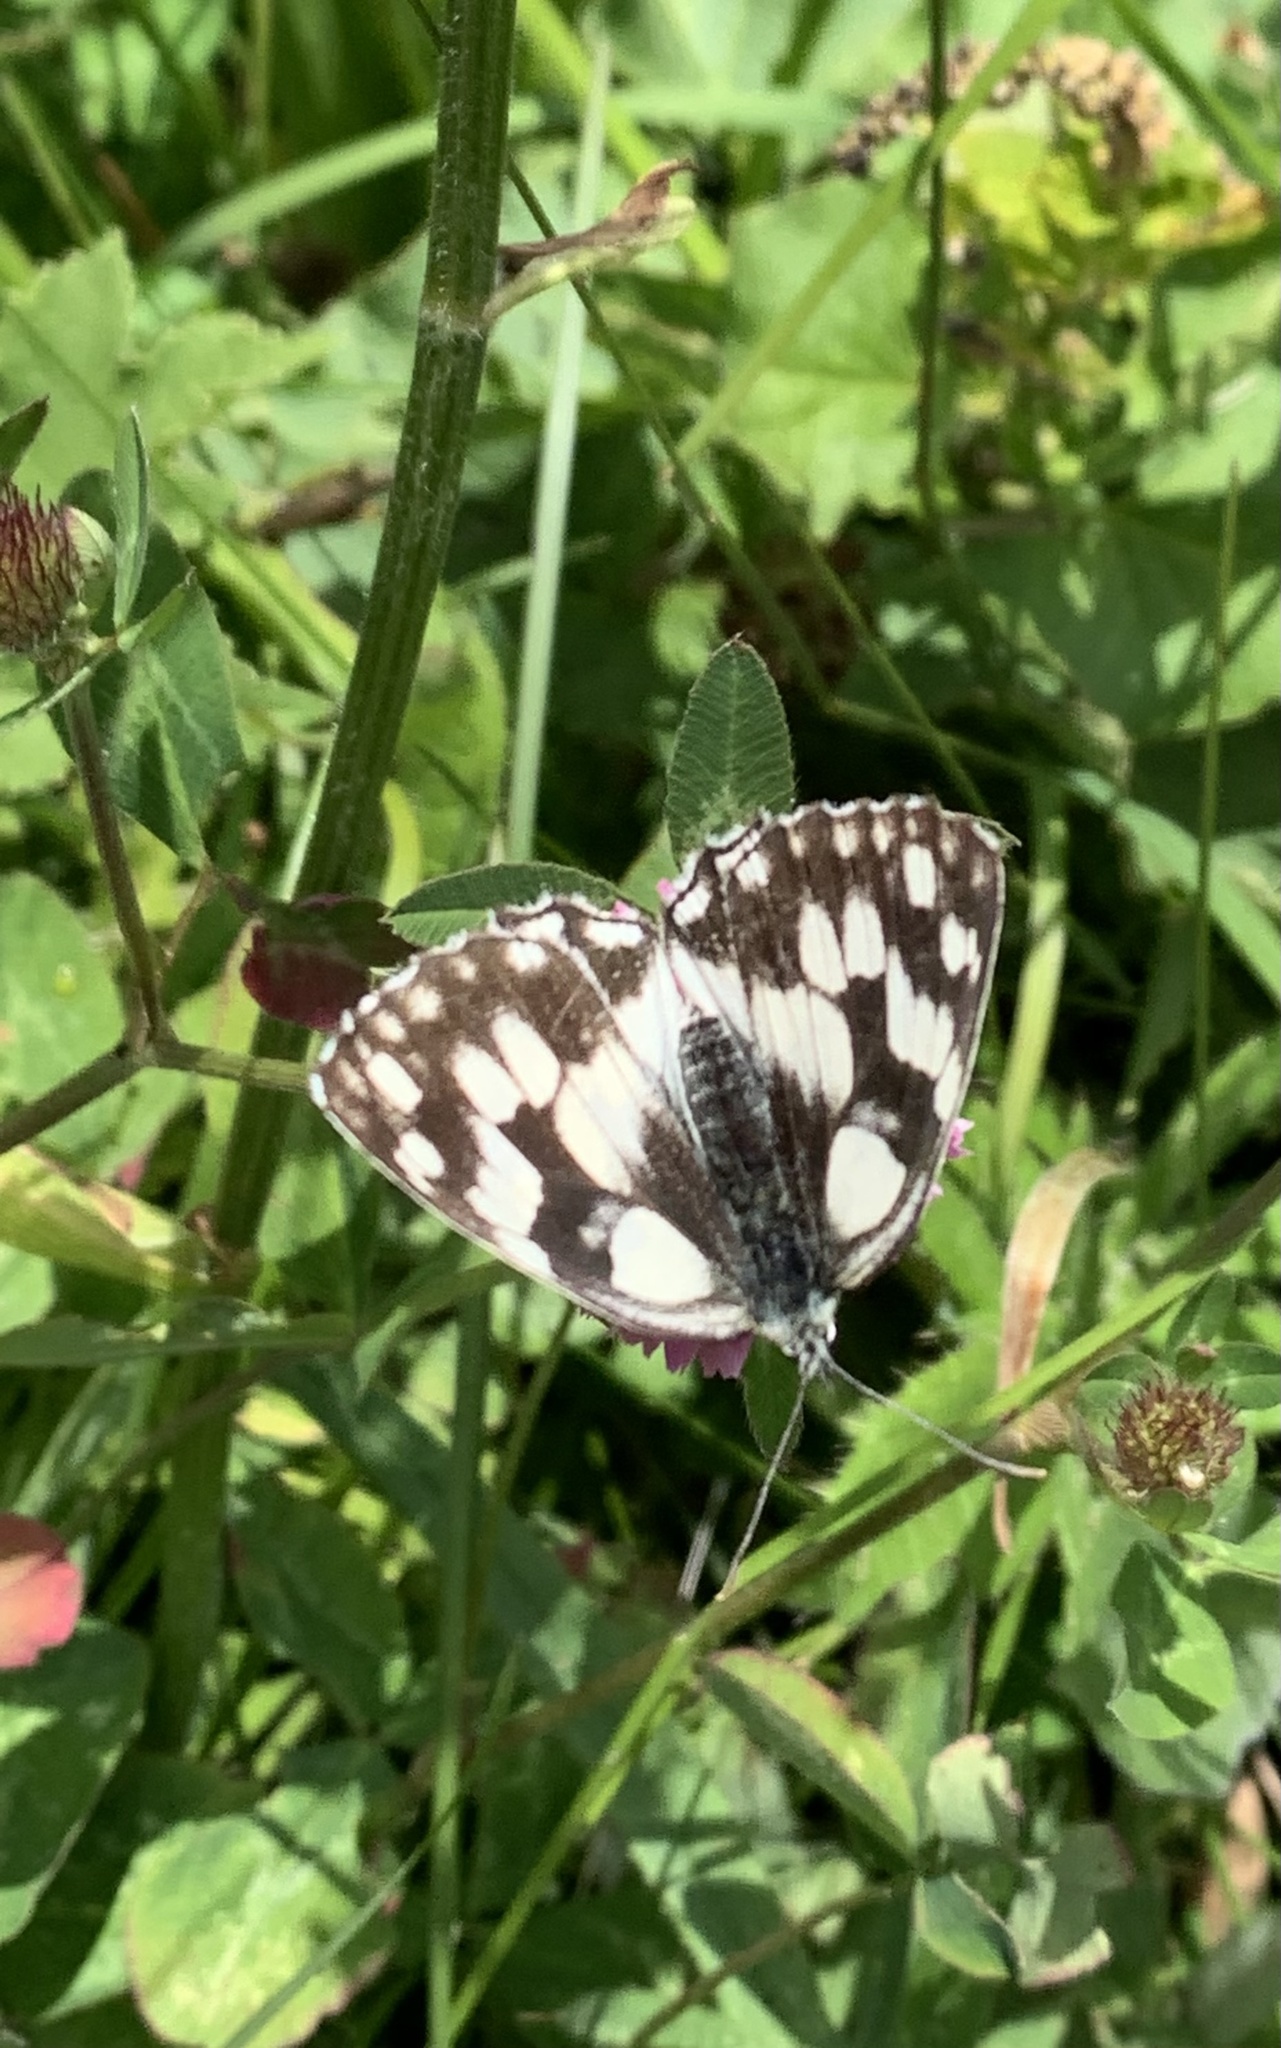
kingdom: Animalia
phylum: Arthropoda
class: Insecta
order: Lepidoptera
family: Nymphalidae
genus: Melanargia
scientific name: Melanargia galathea
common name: Marbled white
